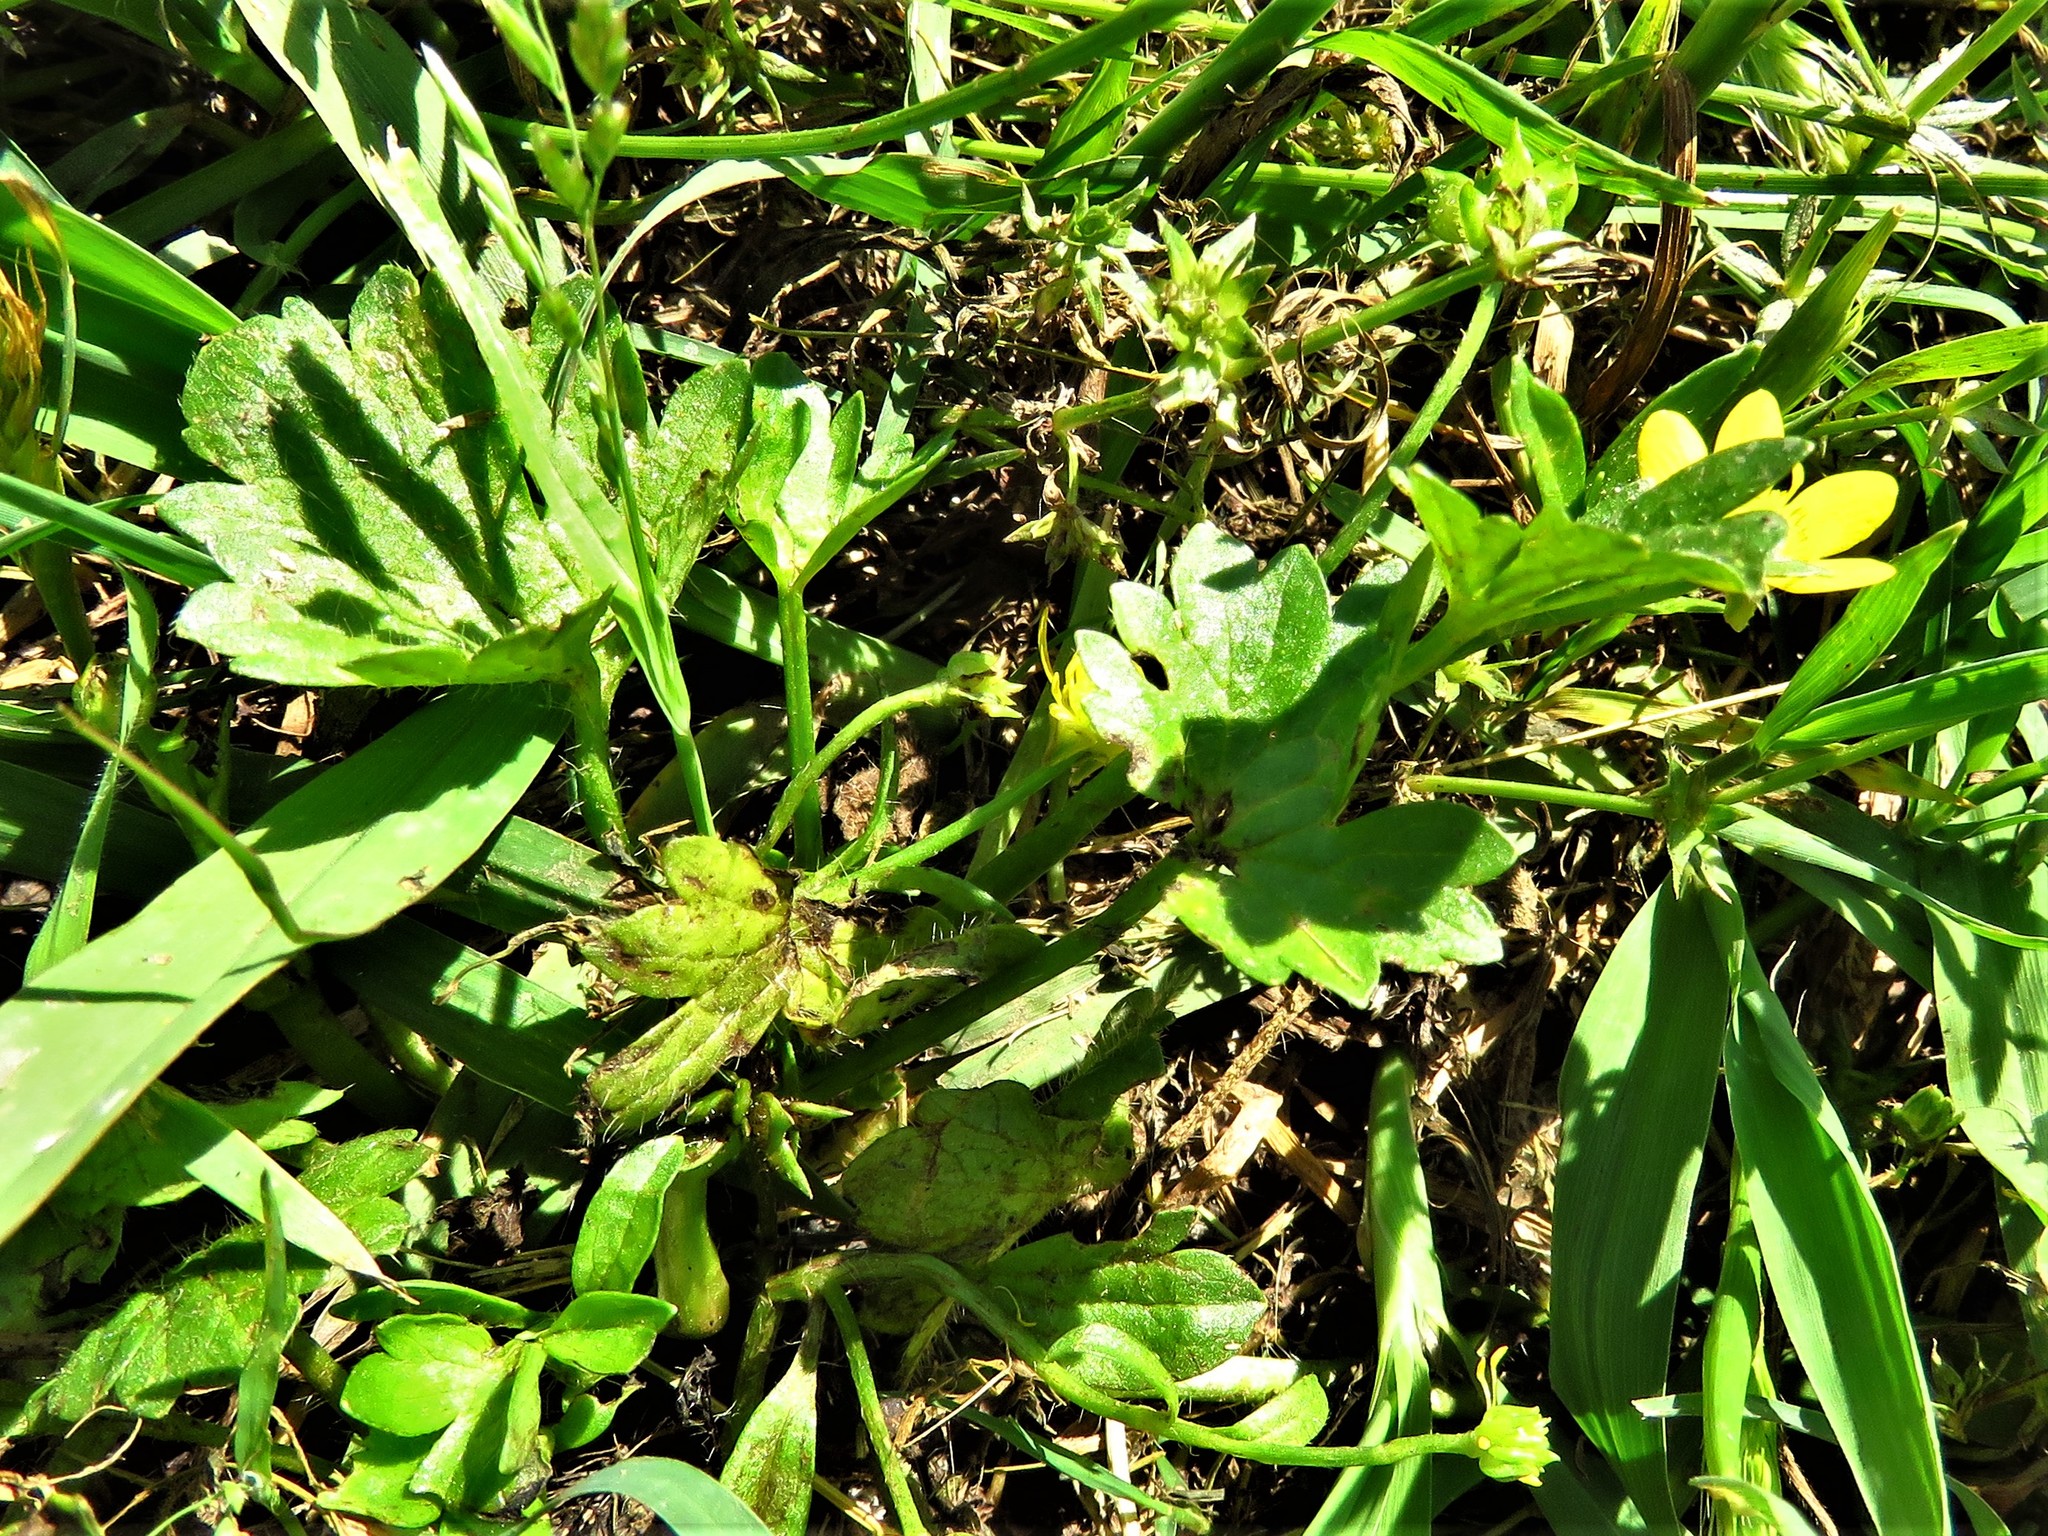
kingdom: Plantae
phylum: Tracheophyta
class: Magnoliopsida
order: Ranunculales
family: Ranunculaceae
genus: Ranunculus
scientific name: Ranunculus muricatus
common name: Rough-fruited buttercup
